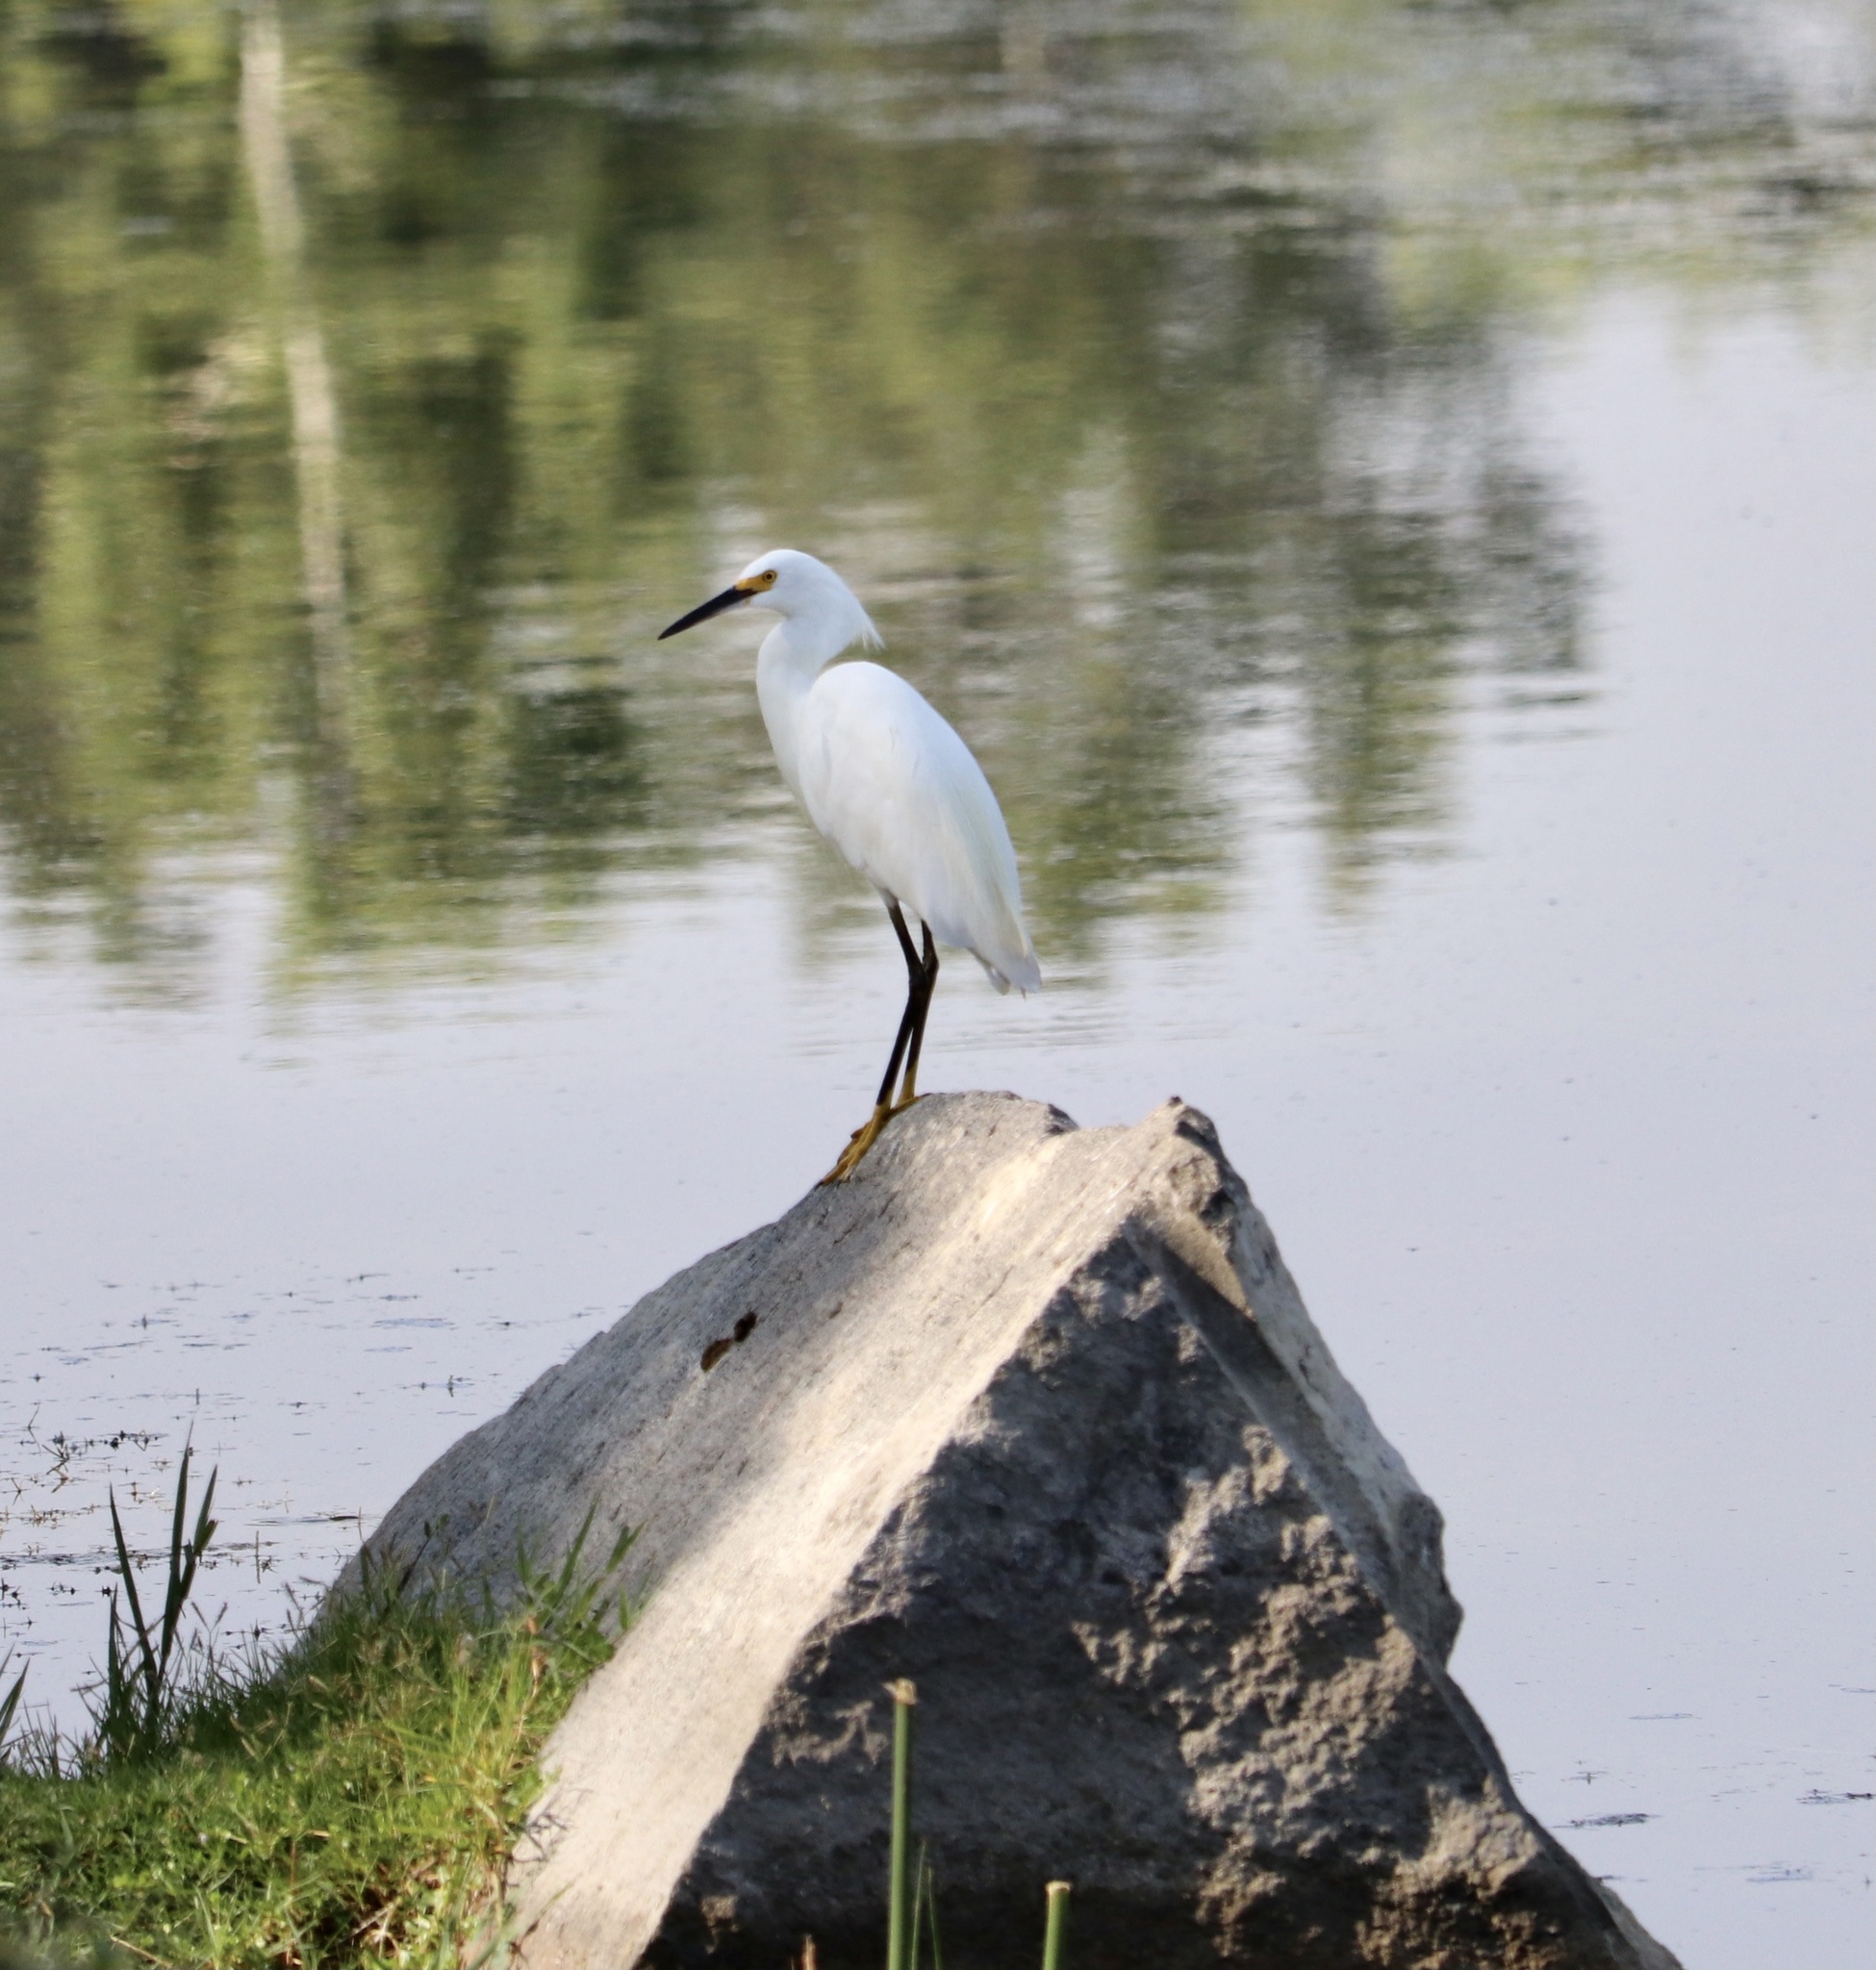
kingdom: Animalia
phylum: Chordata
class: Aves
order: Pelecaniformes
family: Ardeidae
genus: Egretta
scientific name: Egretta thula
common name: Snowy egret
